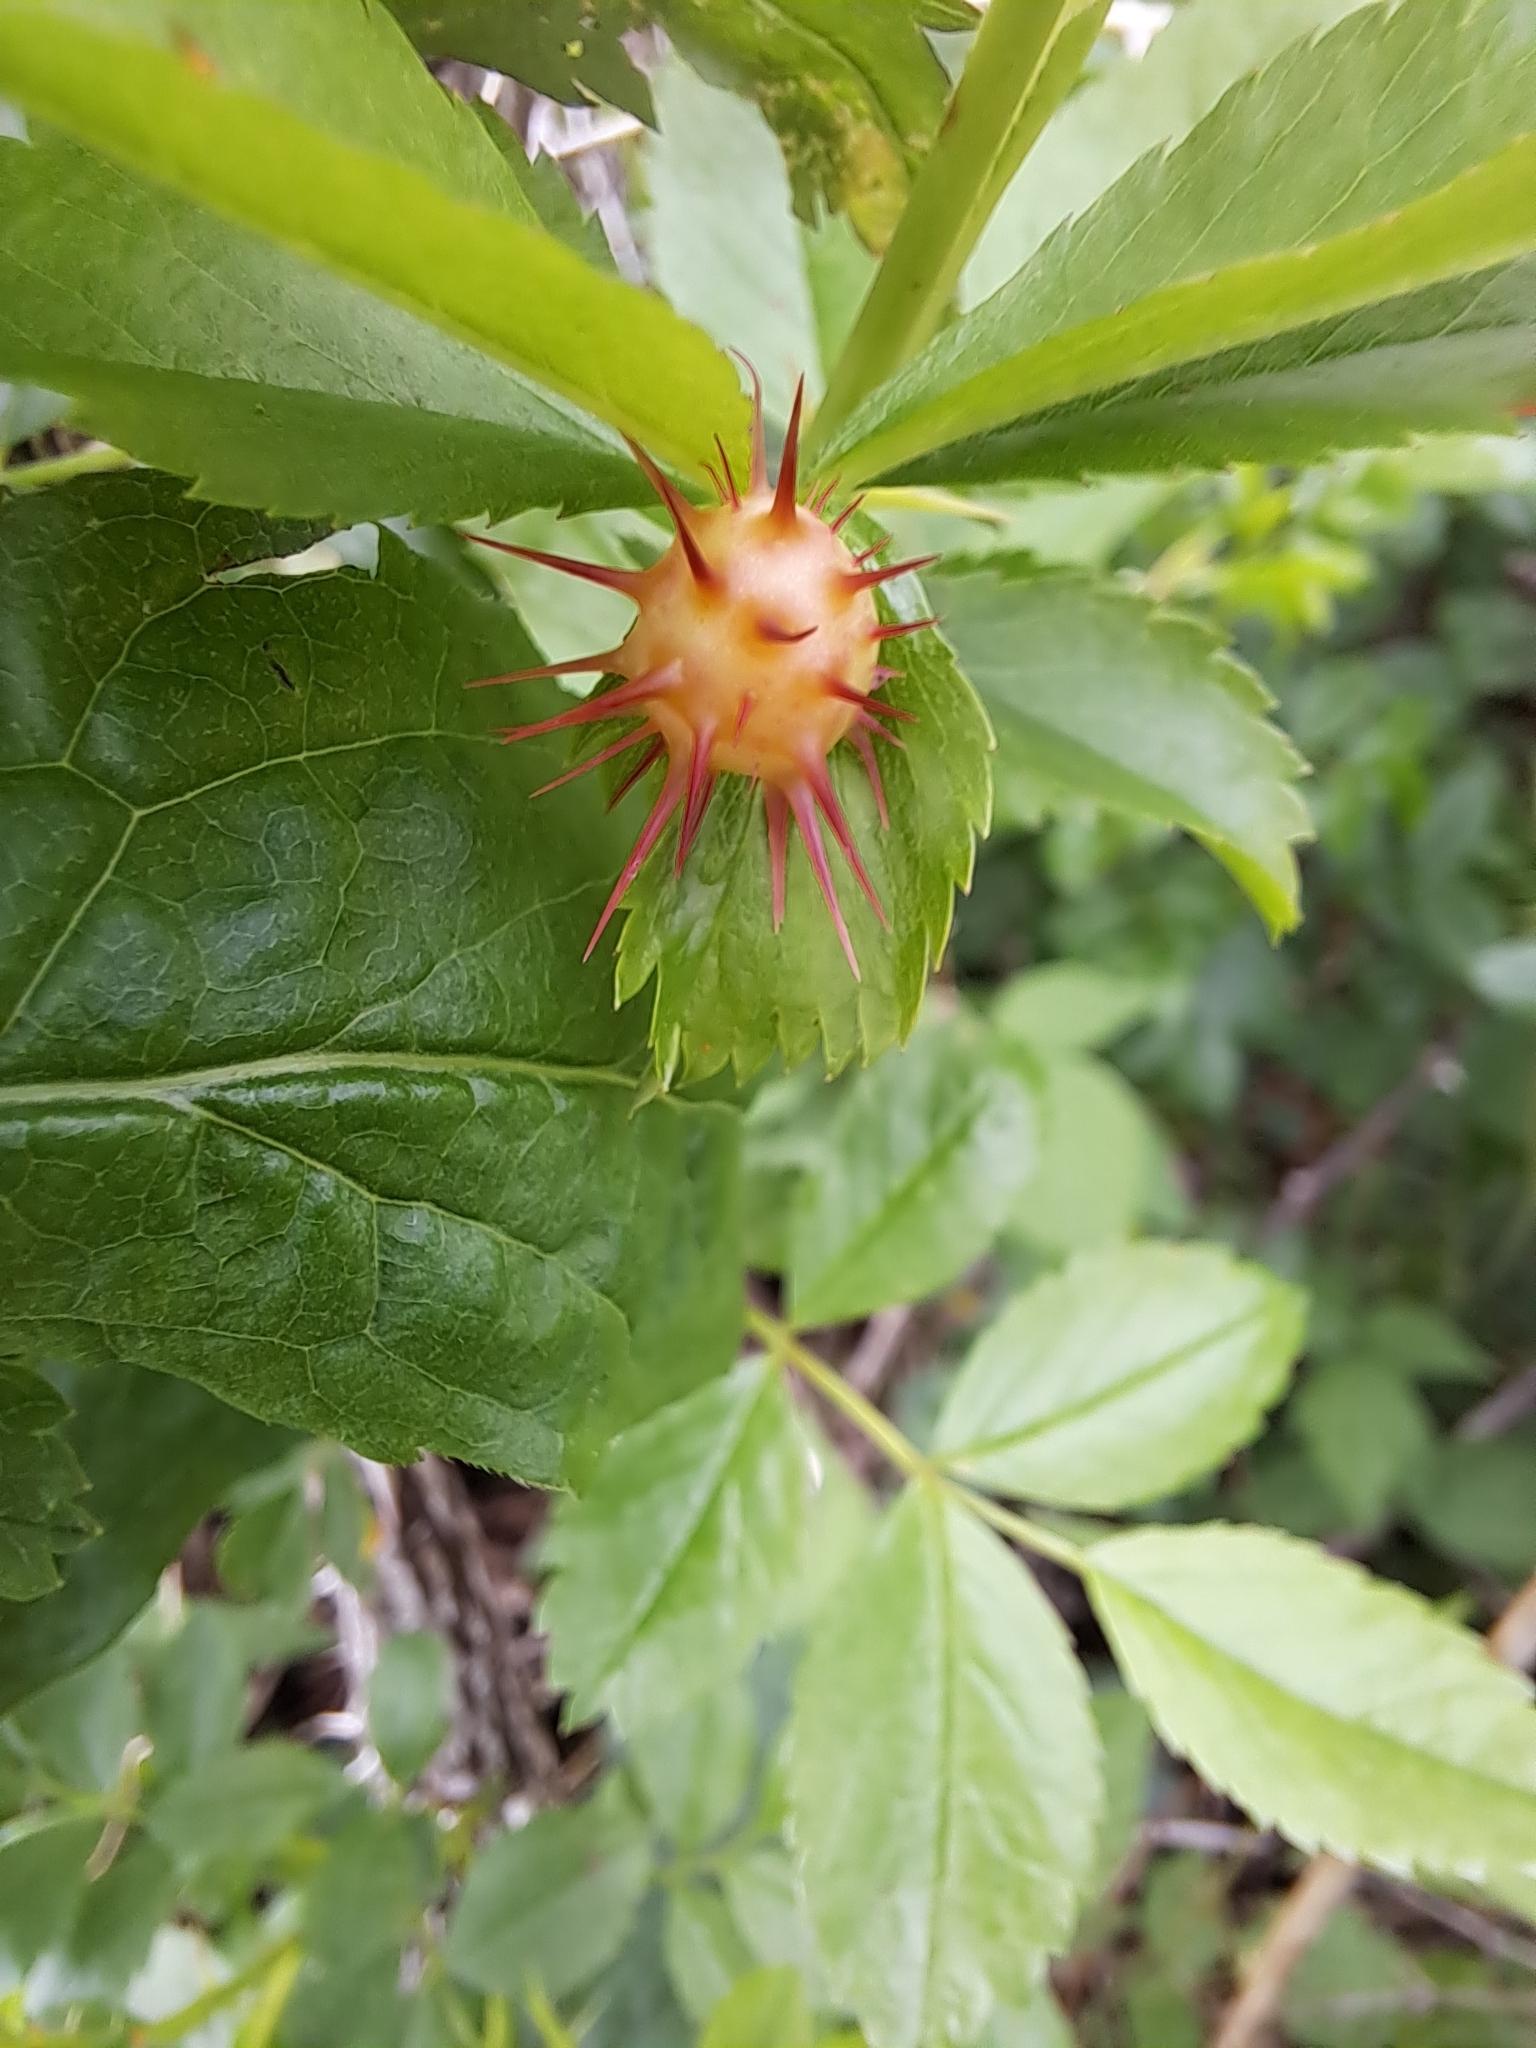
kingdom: Animalia
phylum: Arthropoda
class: Insecta
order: Hymenoptera
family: Cynipidae
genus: Diplolepis
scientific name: Diplolepis polita
